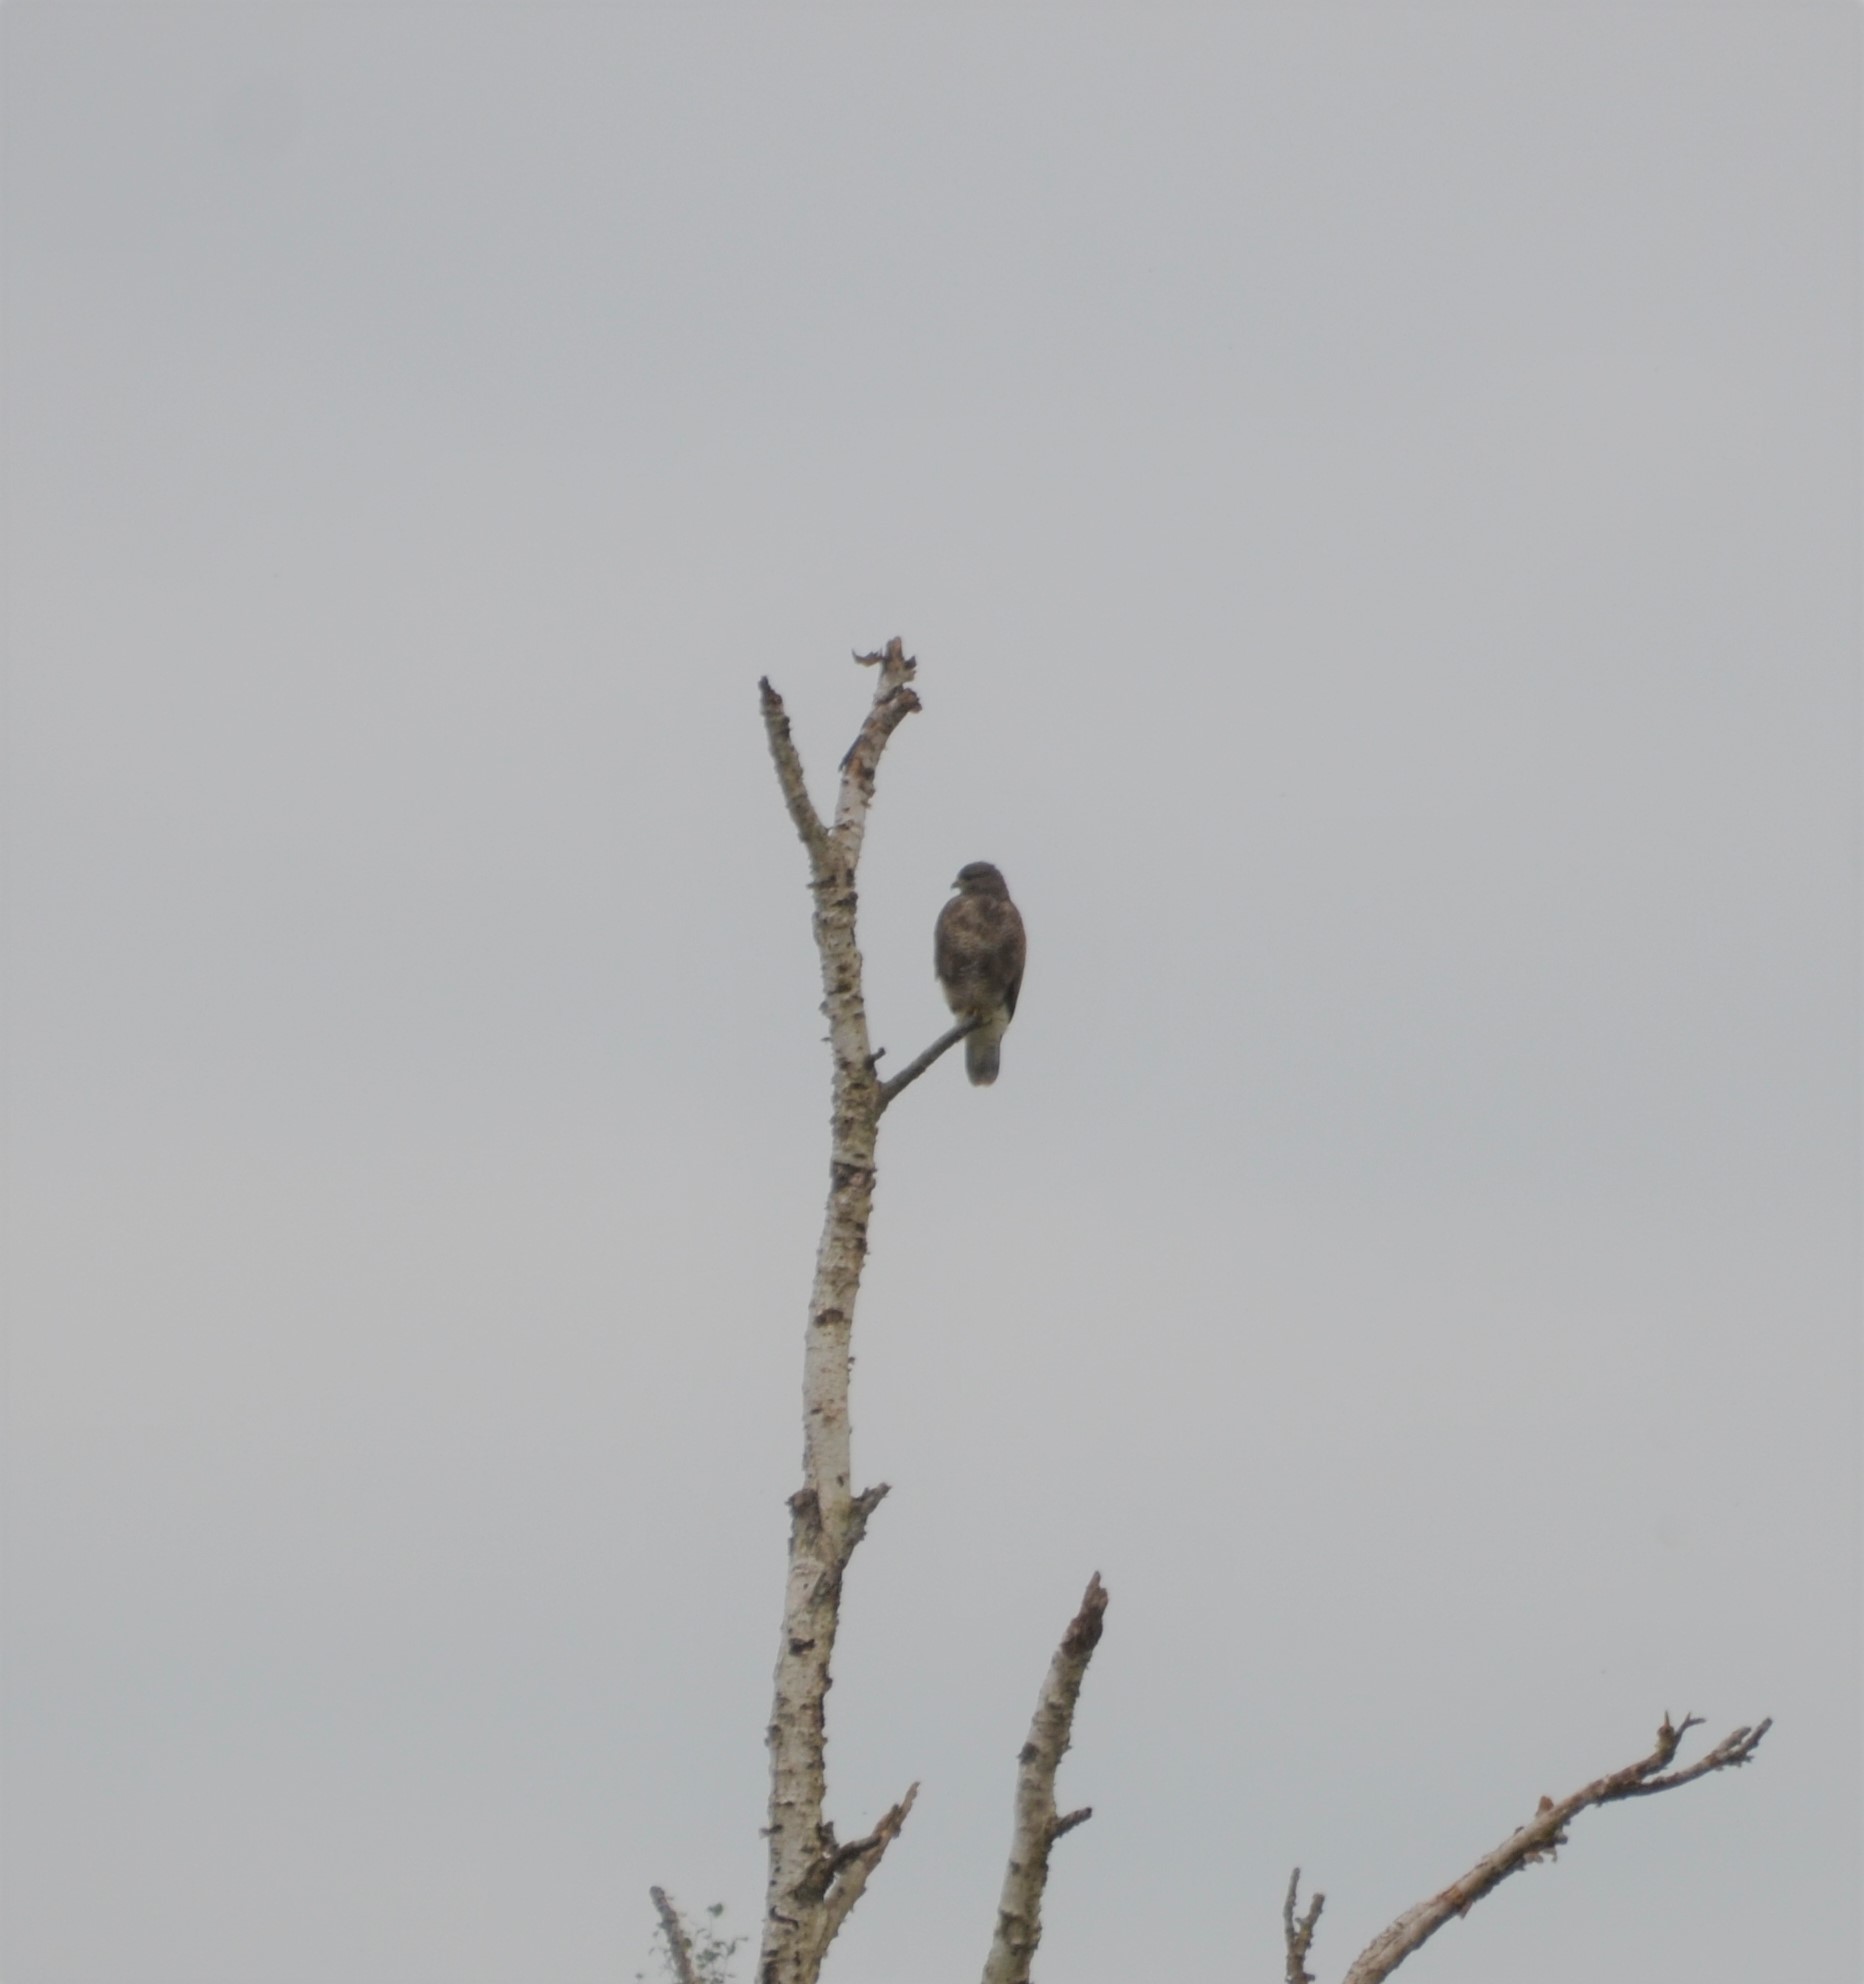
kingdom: Animalia
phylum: Chordata
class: Aves
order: Accipitriformes
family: Accipitridae
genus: Buteo
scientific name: Buteo buteo
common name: Common buzzard
